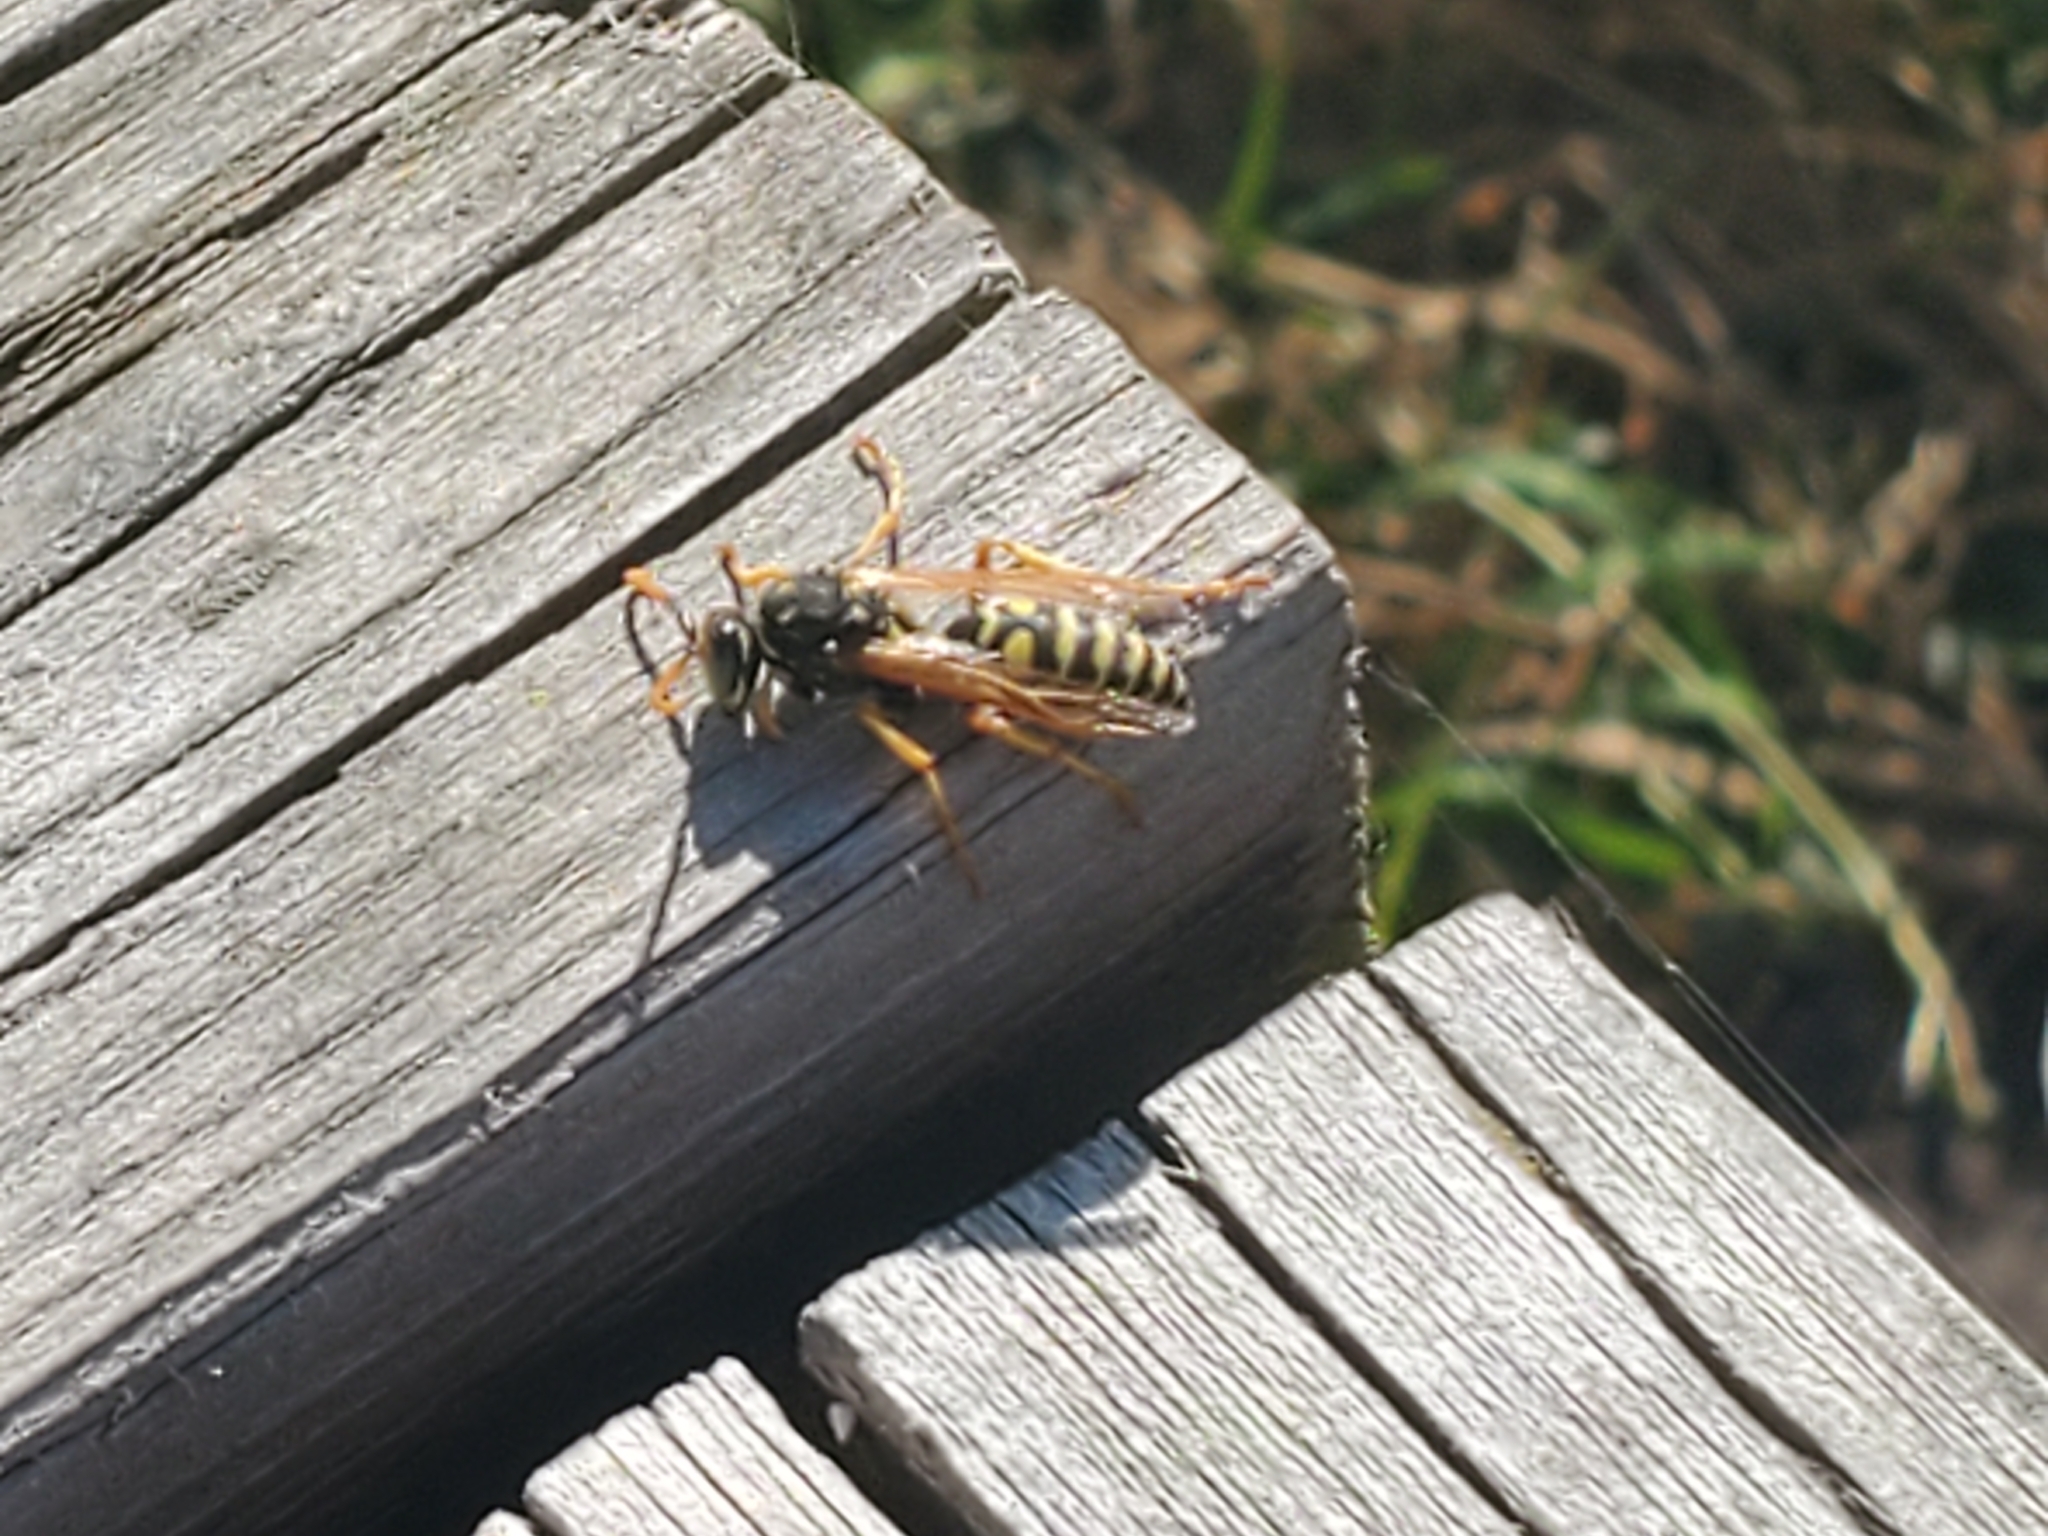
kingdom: Animalia
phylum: Arthropoda
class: Insecta
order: Hymenoptera
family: Eumenidae
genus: Polistes
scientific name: Polistes dominula
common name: Paper wasp
